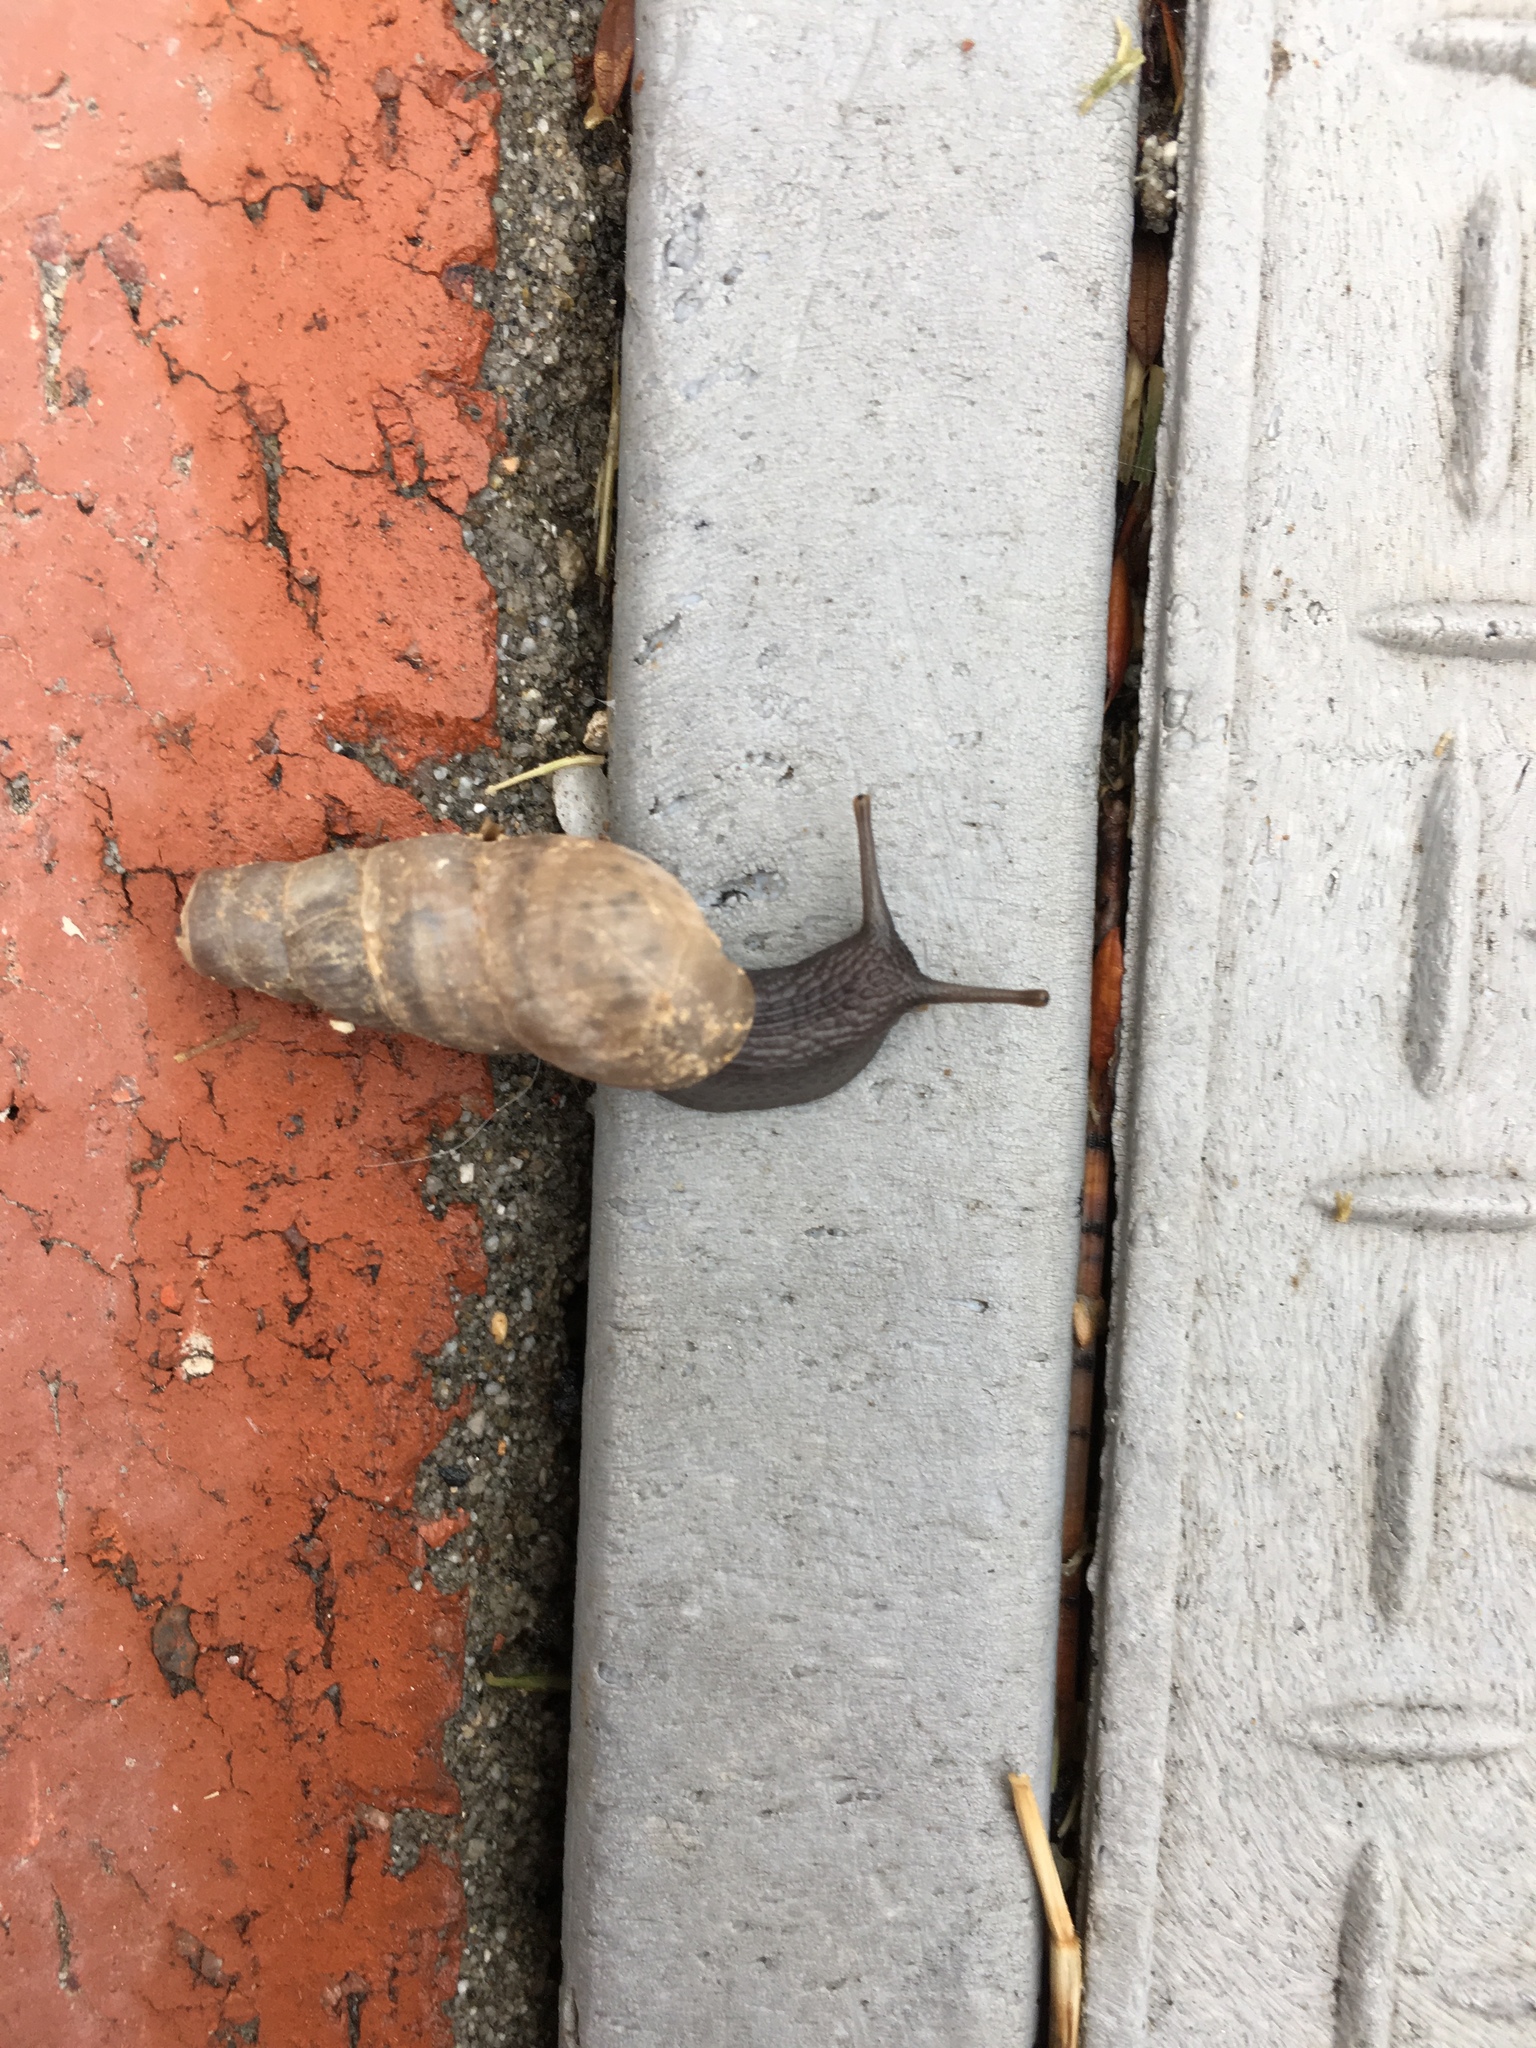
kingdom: Animalia
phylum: Mollusca
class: Gastropoda
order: Stylommatophora
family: Achatinidae
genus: Rumina
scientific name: Rumina decollata
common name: Decollate snail
